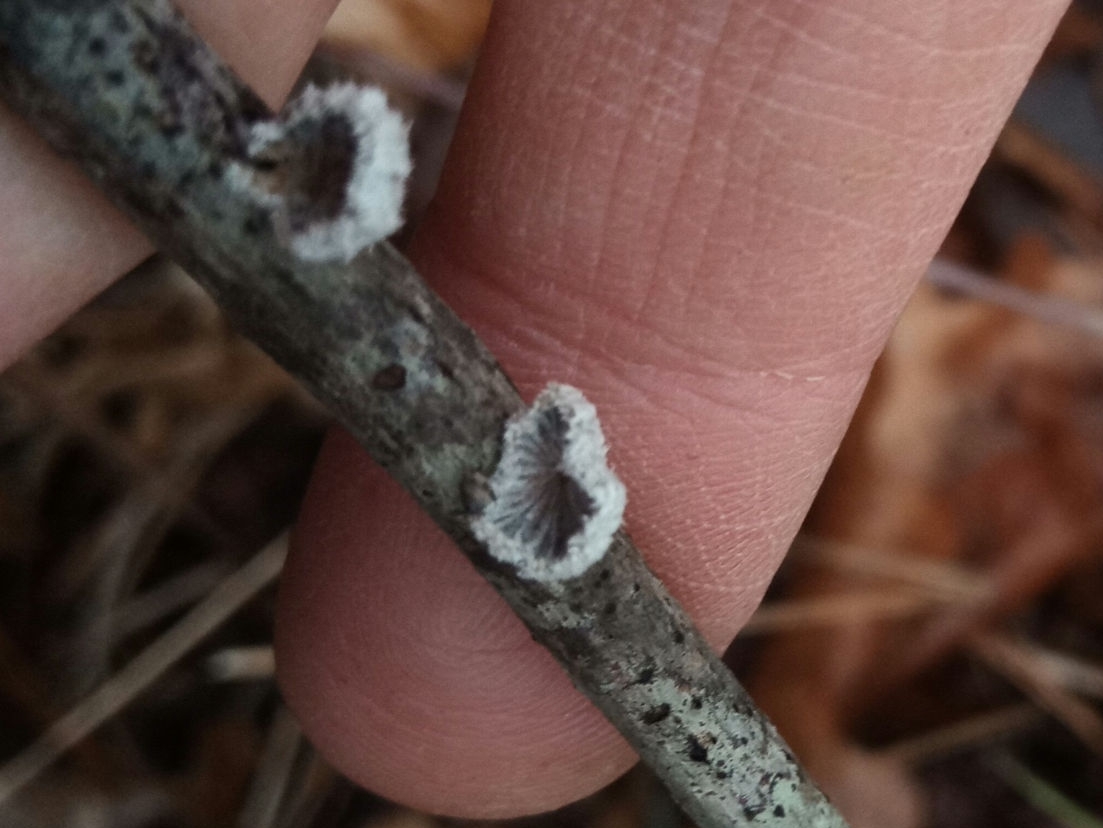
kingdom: Fungi
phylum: Basidiomycota
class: Agaricomycetes
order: Agaricales
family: Schizophyllaceae
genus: Schizophyllum
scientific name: Schizophyllum commune
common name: Common porecrust
